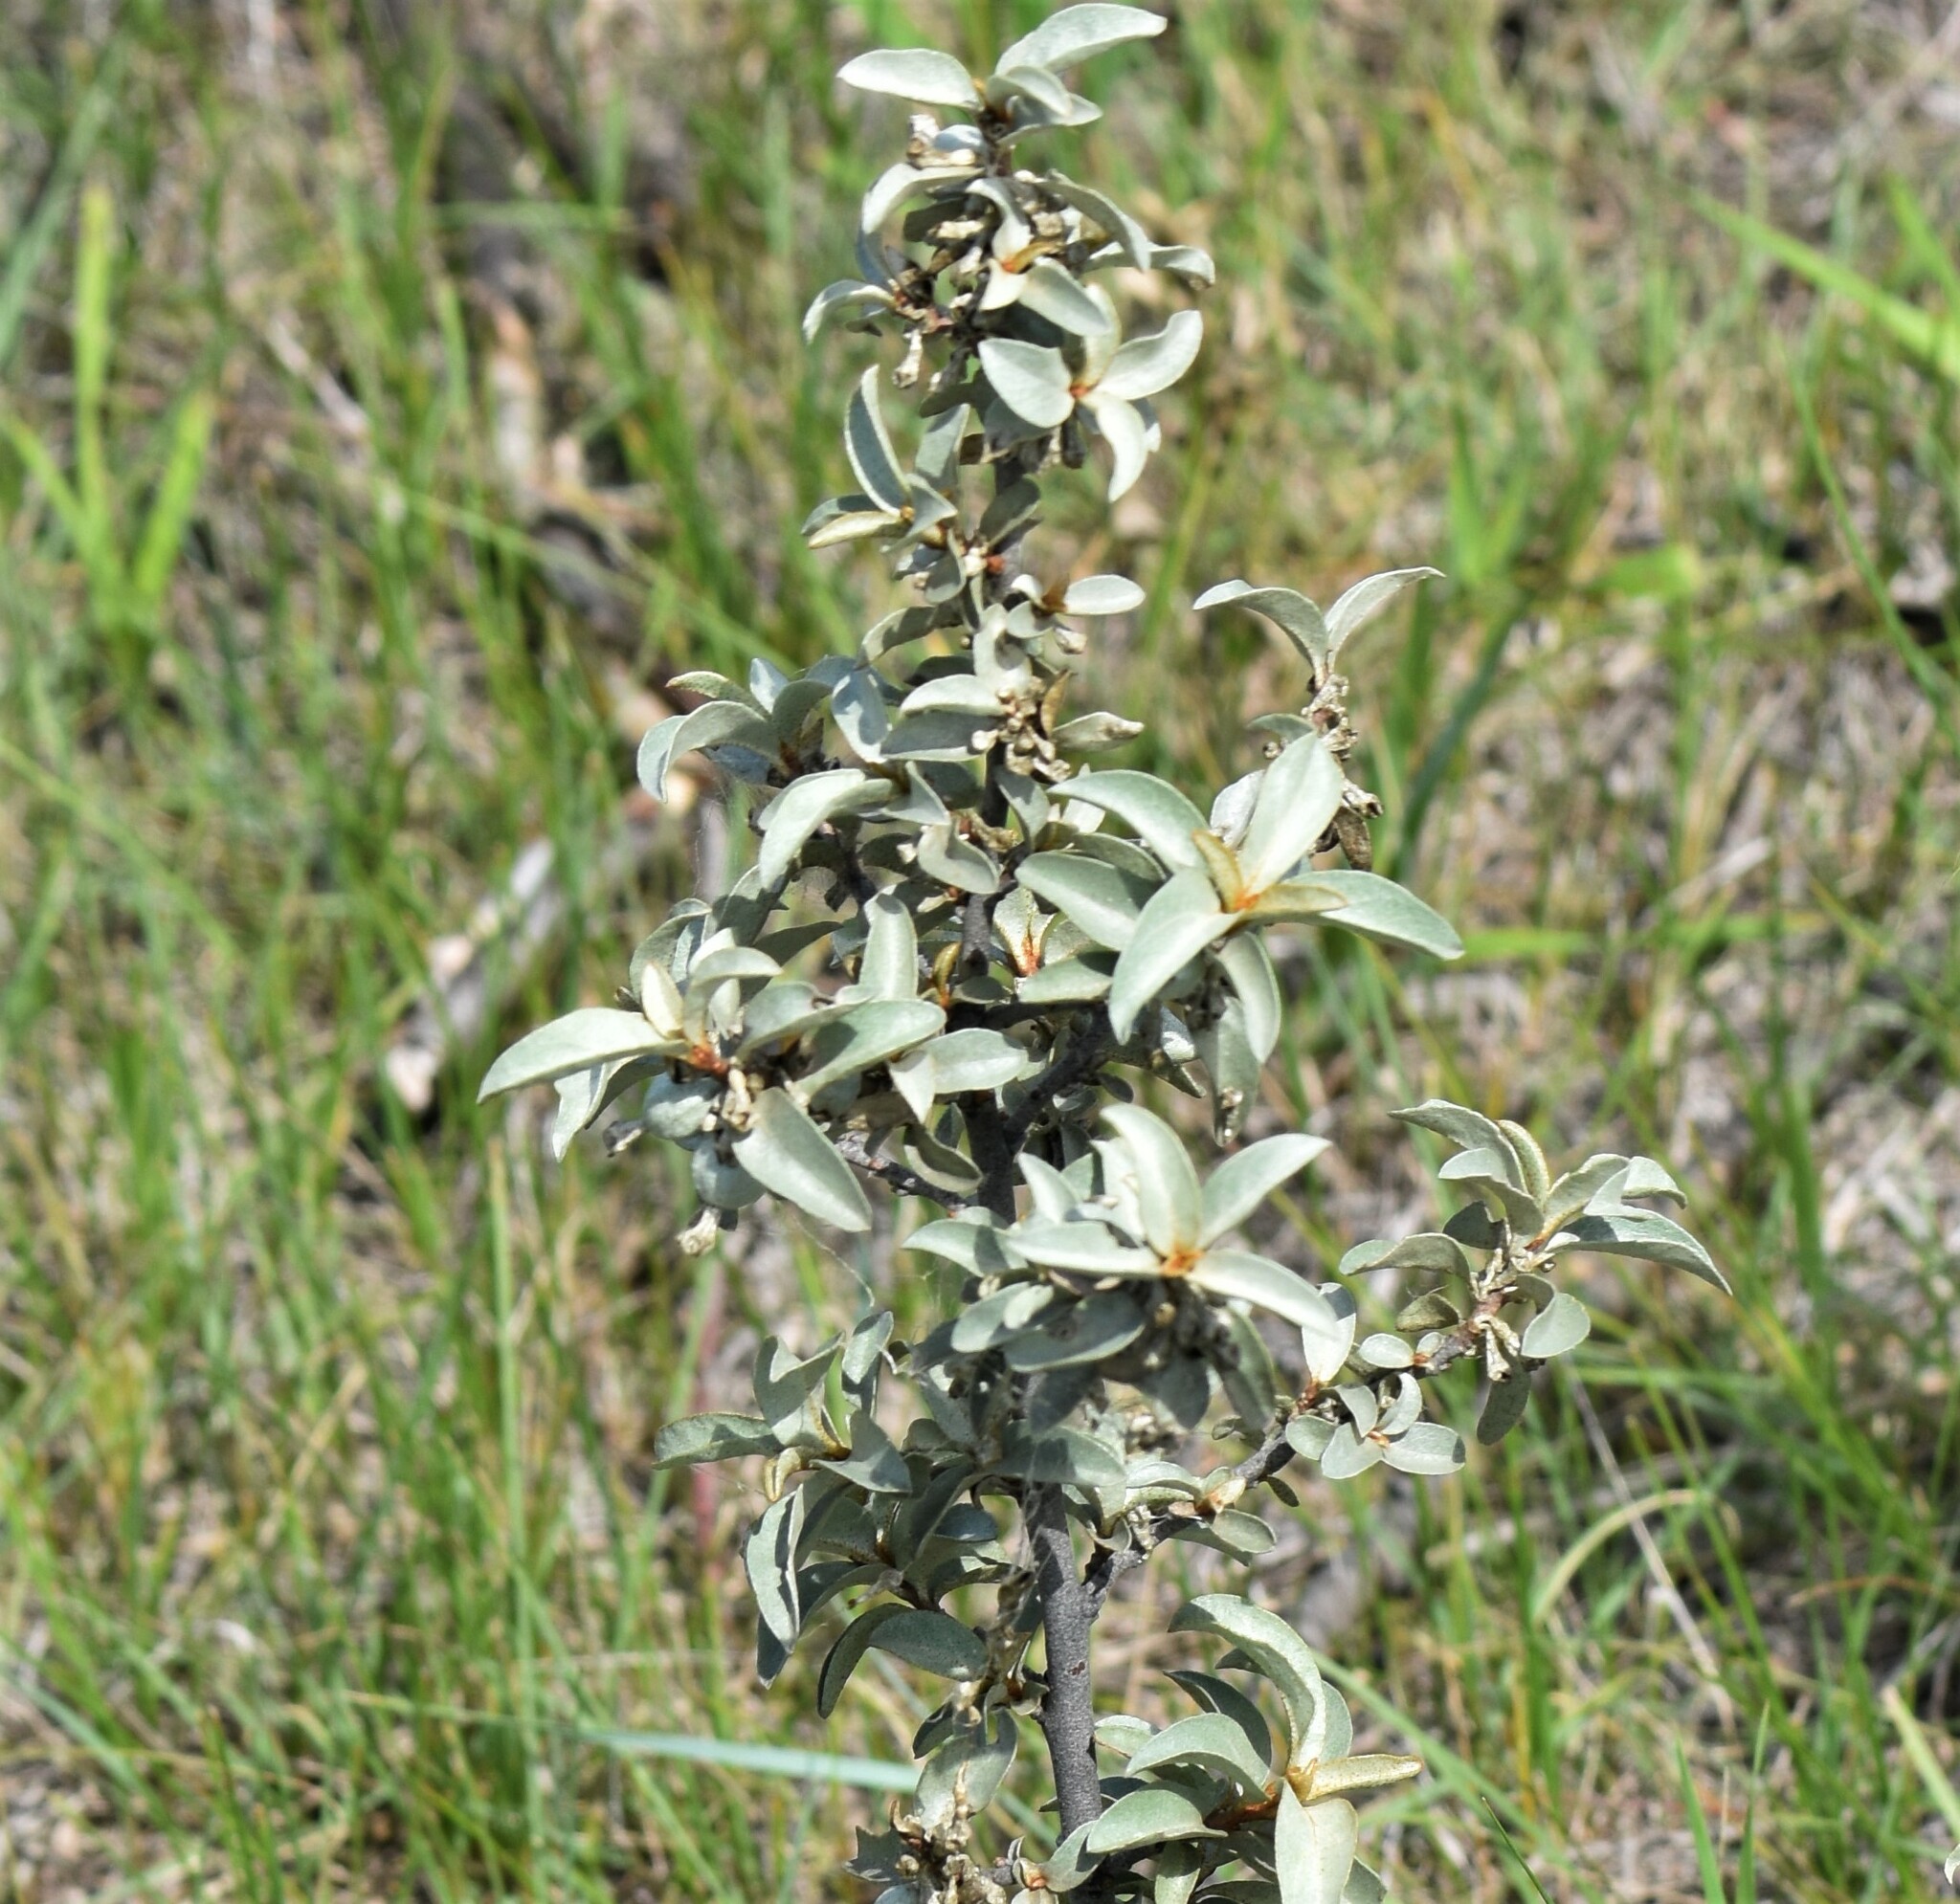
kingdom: Plantae
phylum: Tracheophyta
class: Magnoliopsida
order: Rosales
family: Elaeagnaceae
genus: Elaeagnus
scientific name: Elaeagnus commutata
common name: Silverberry
